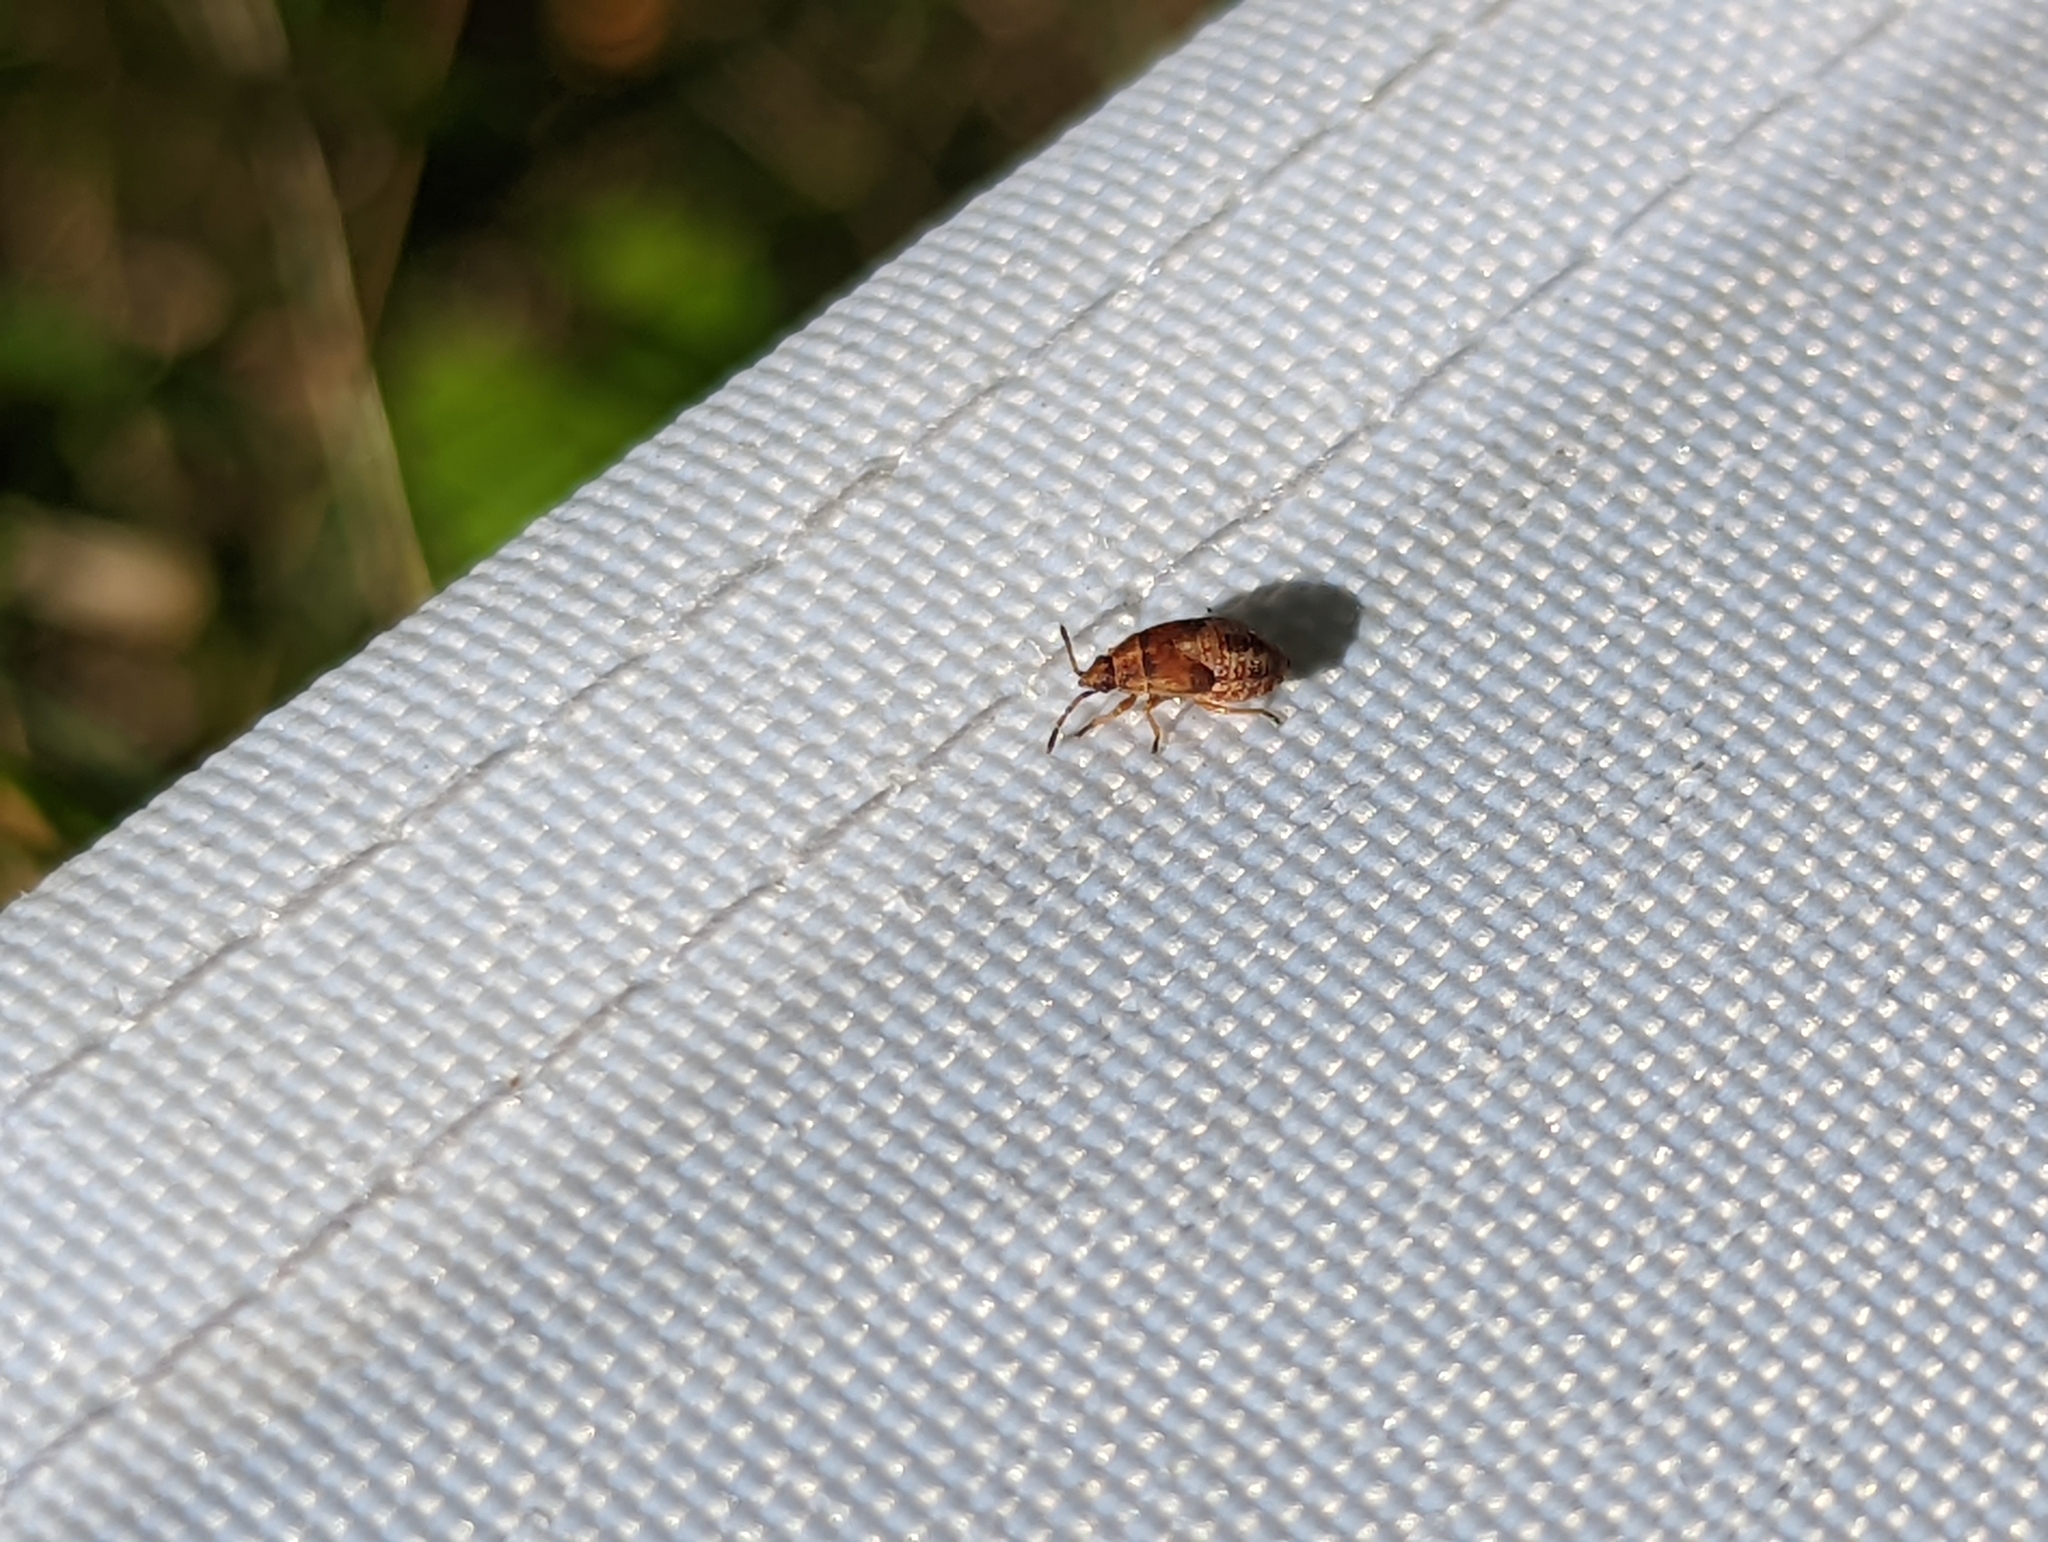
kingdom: Animalia
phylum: Arthropoda
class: Insecta
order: Hemiptera
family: Lygaeidae
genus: Kleidocerys
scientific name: Kleidocerys resedae
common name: Birch catkin bug
